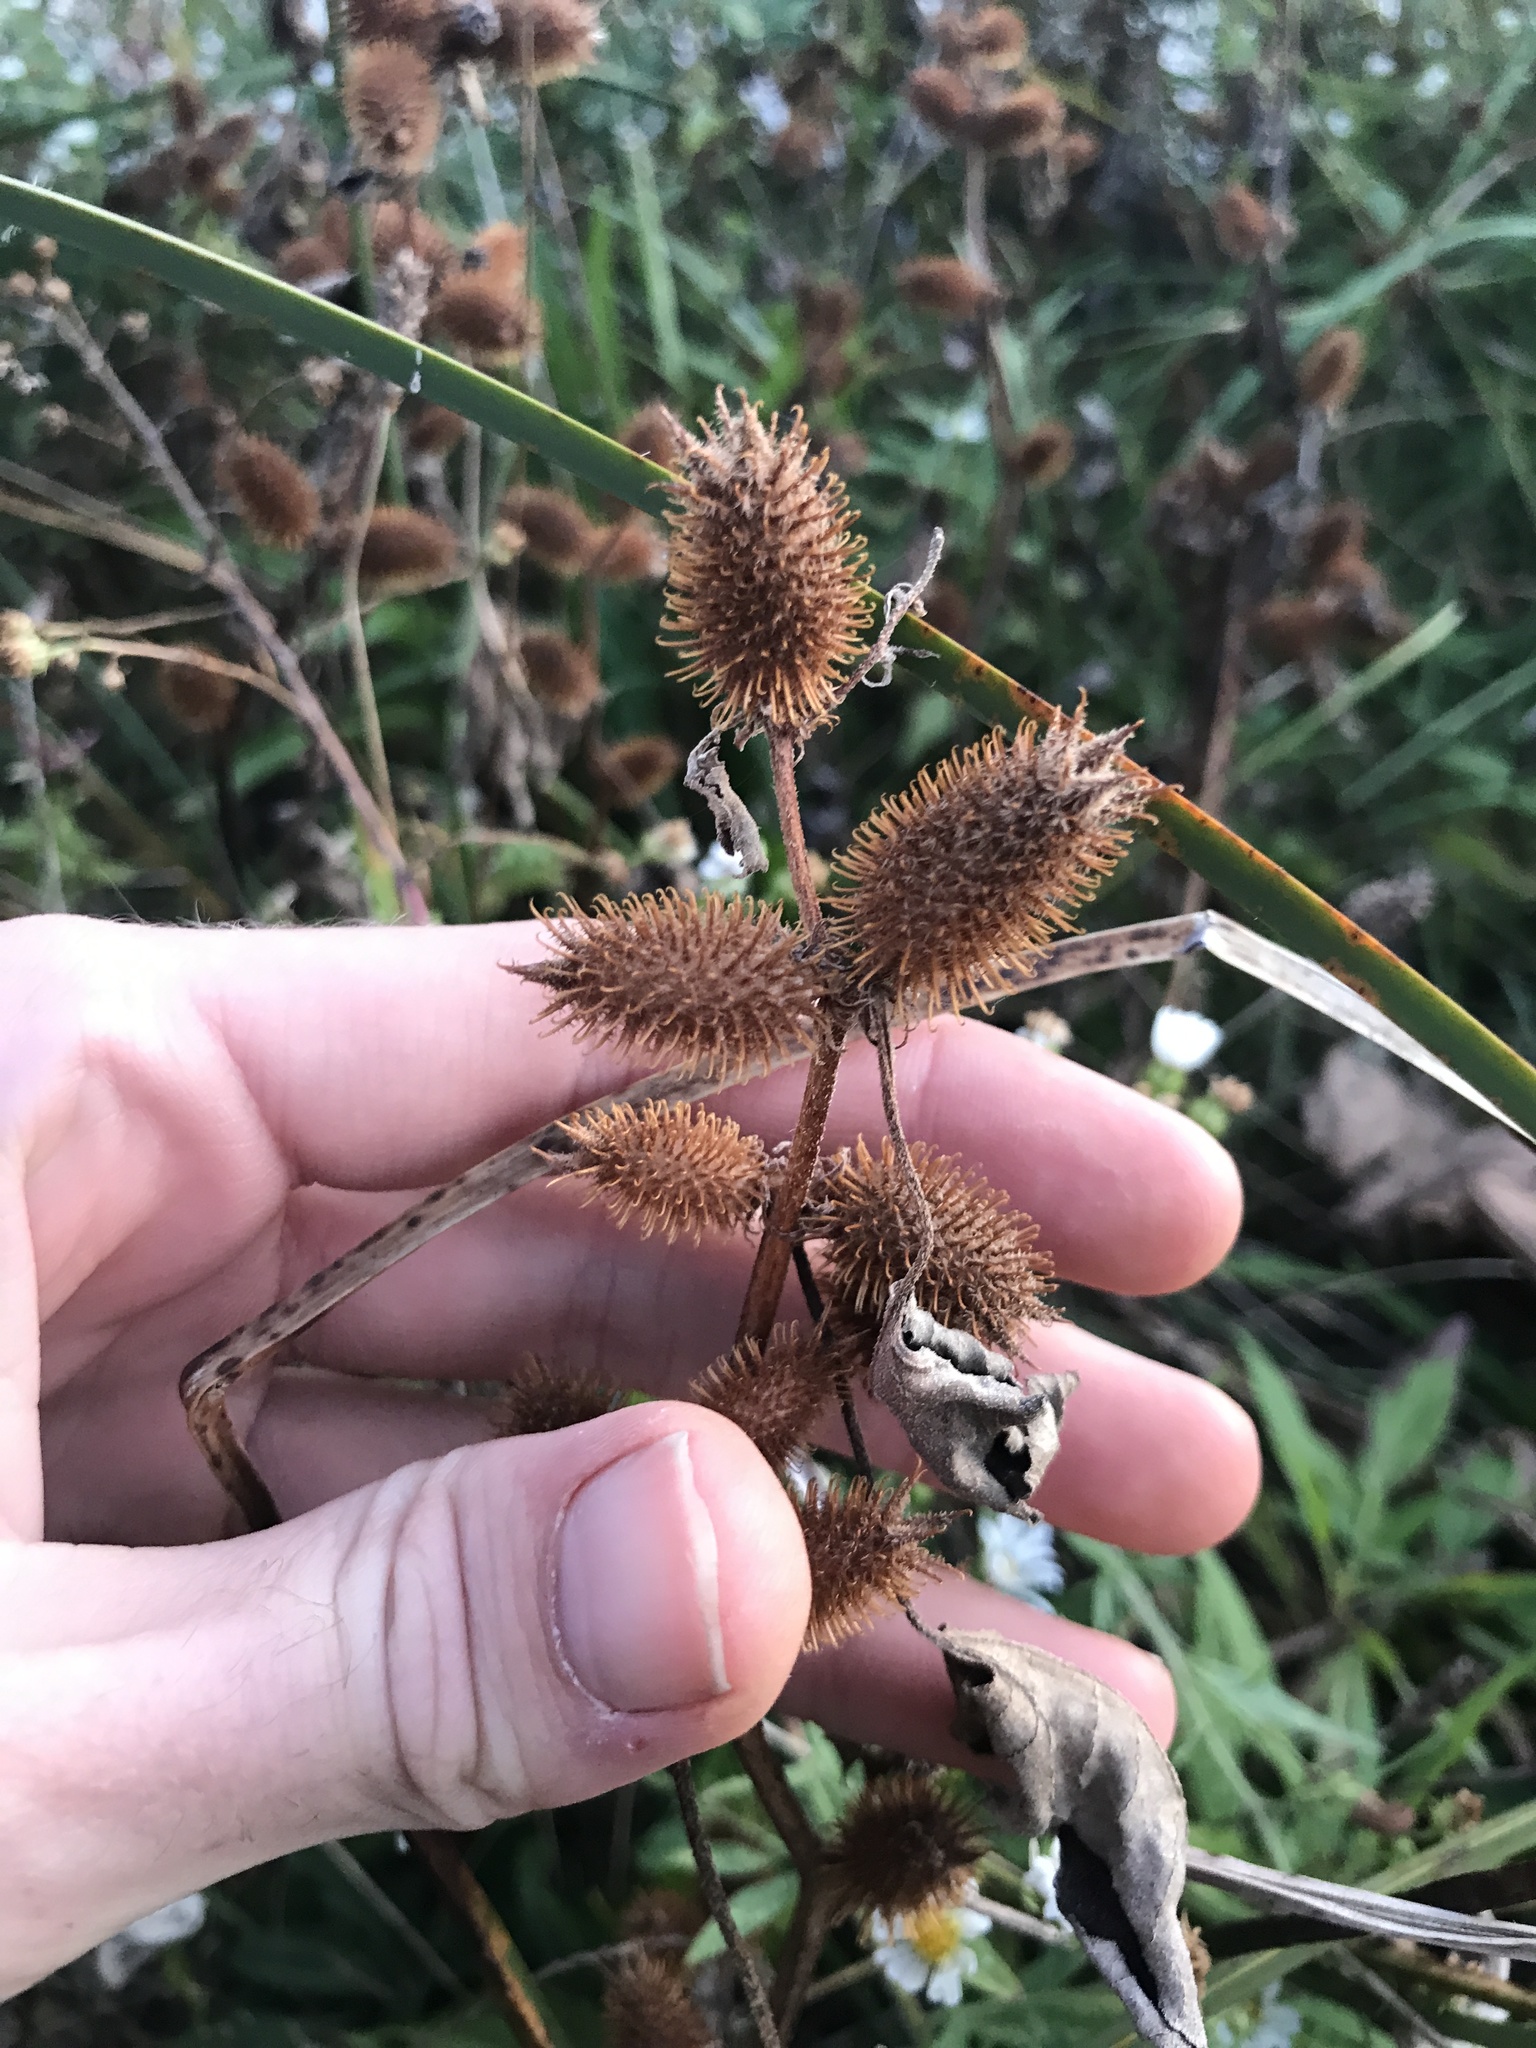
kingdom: Plantae
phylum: Tracheophyta
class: Magnoliopsida
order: Asterales
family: Asteraceae
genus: Xanthium
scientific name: Xanthium strumarium
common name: Rough cocklebur
